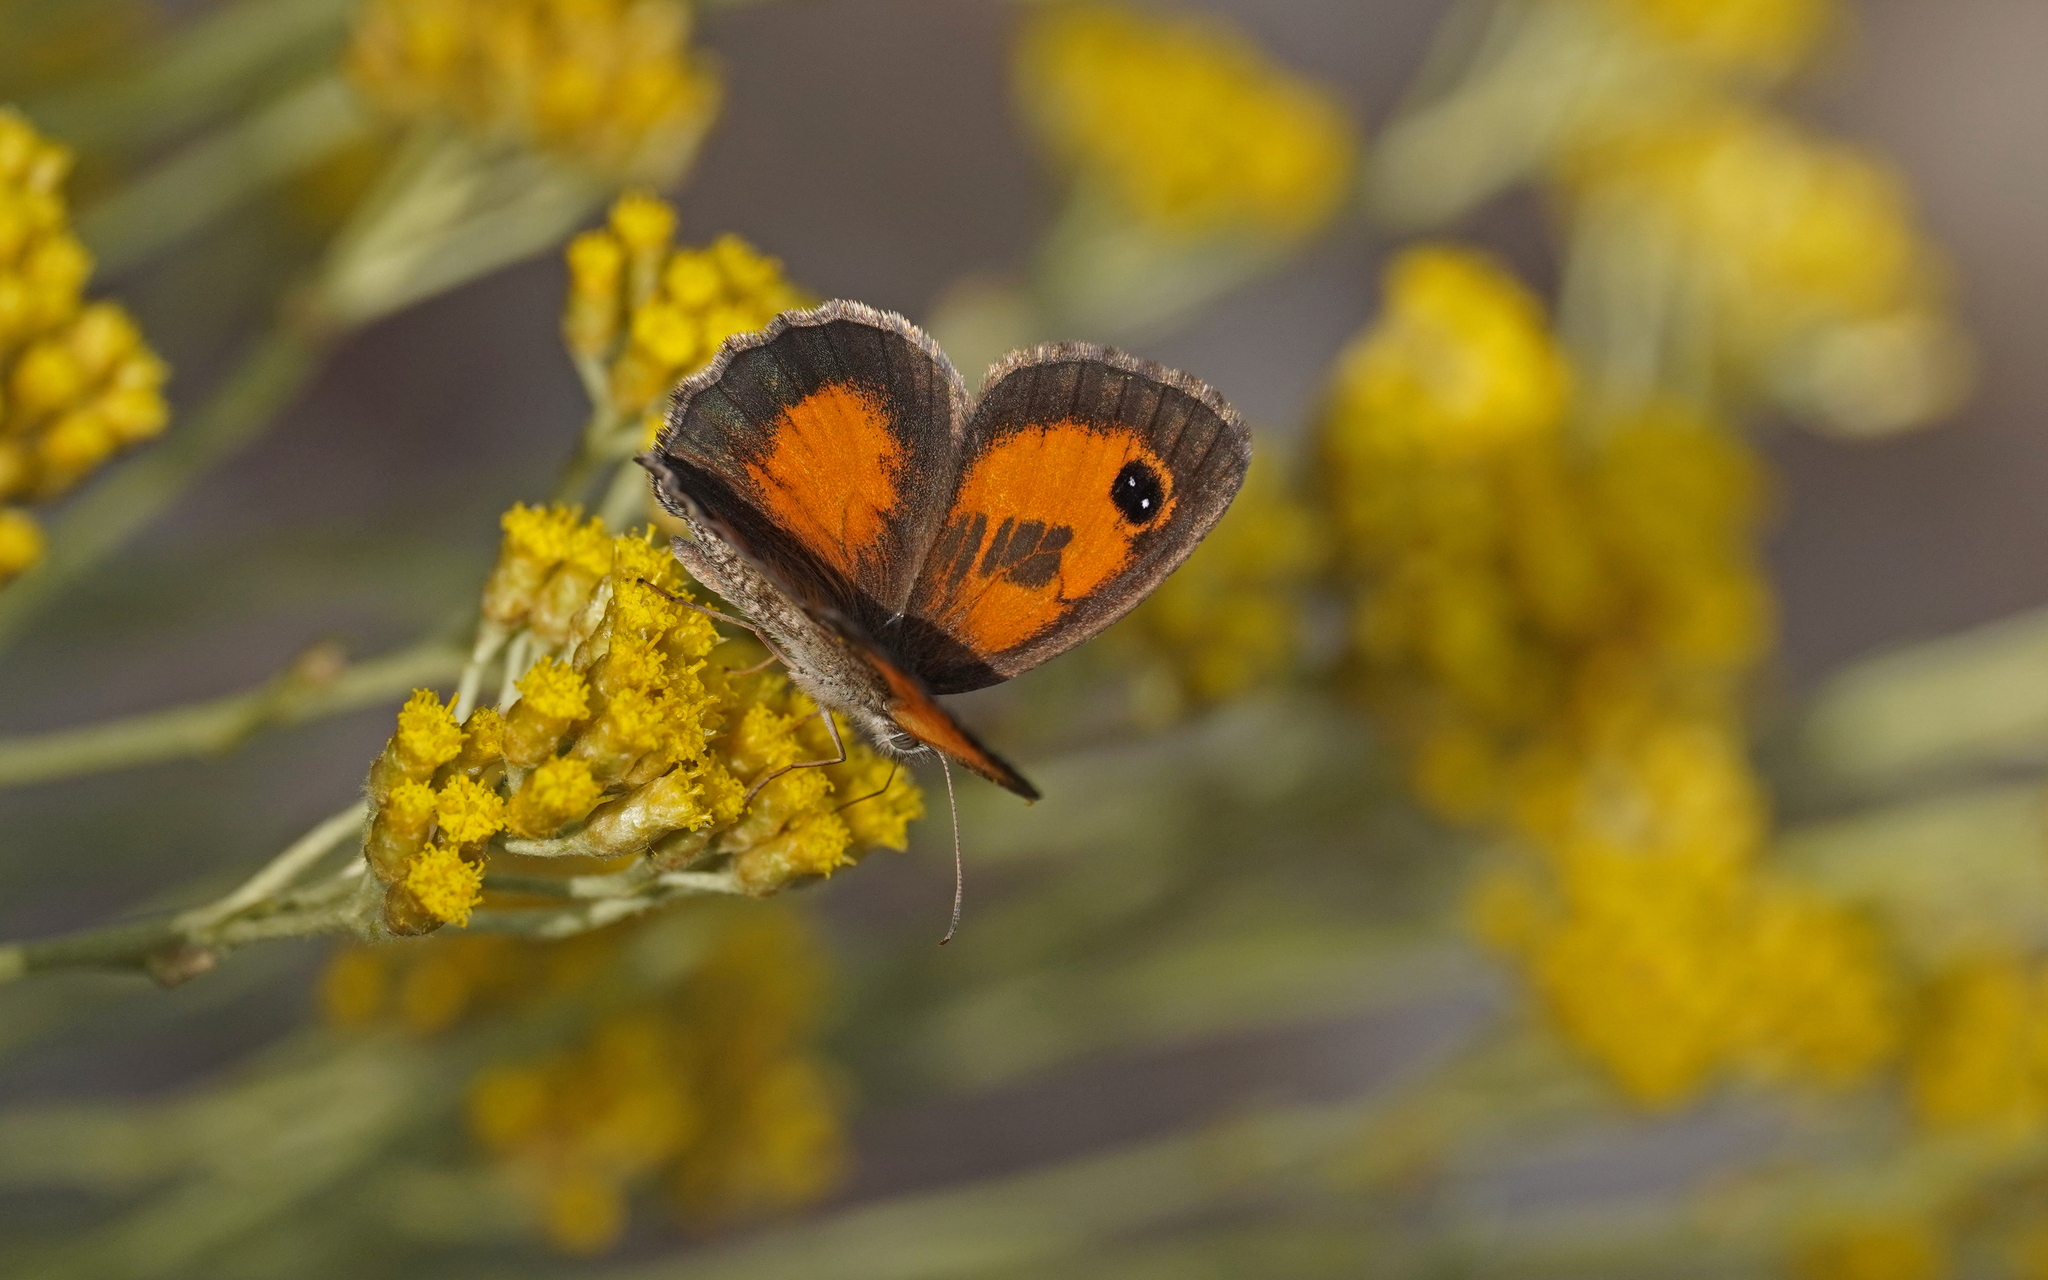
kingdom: Animalia
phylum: Arthropoda
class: Insecta
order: Lepidoptera
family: Nymphalidae
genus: Pyronia
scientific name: Pyronia cecilia
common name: Southern gatekeeper
